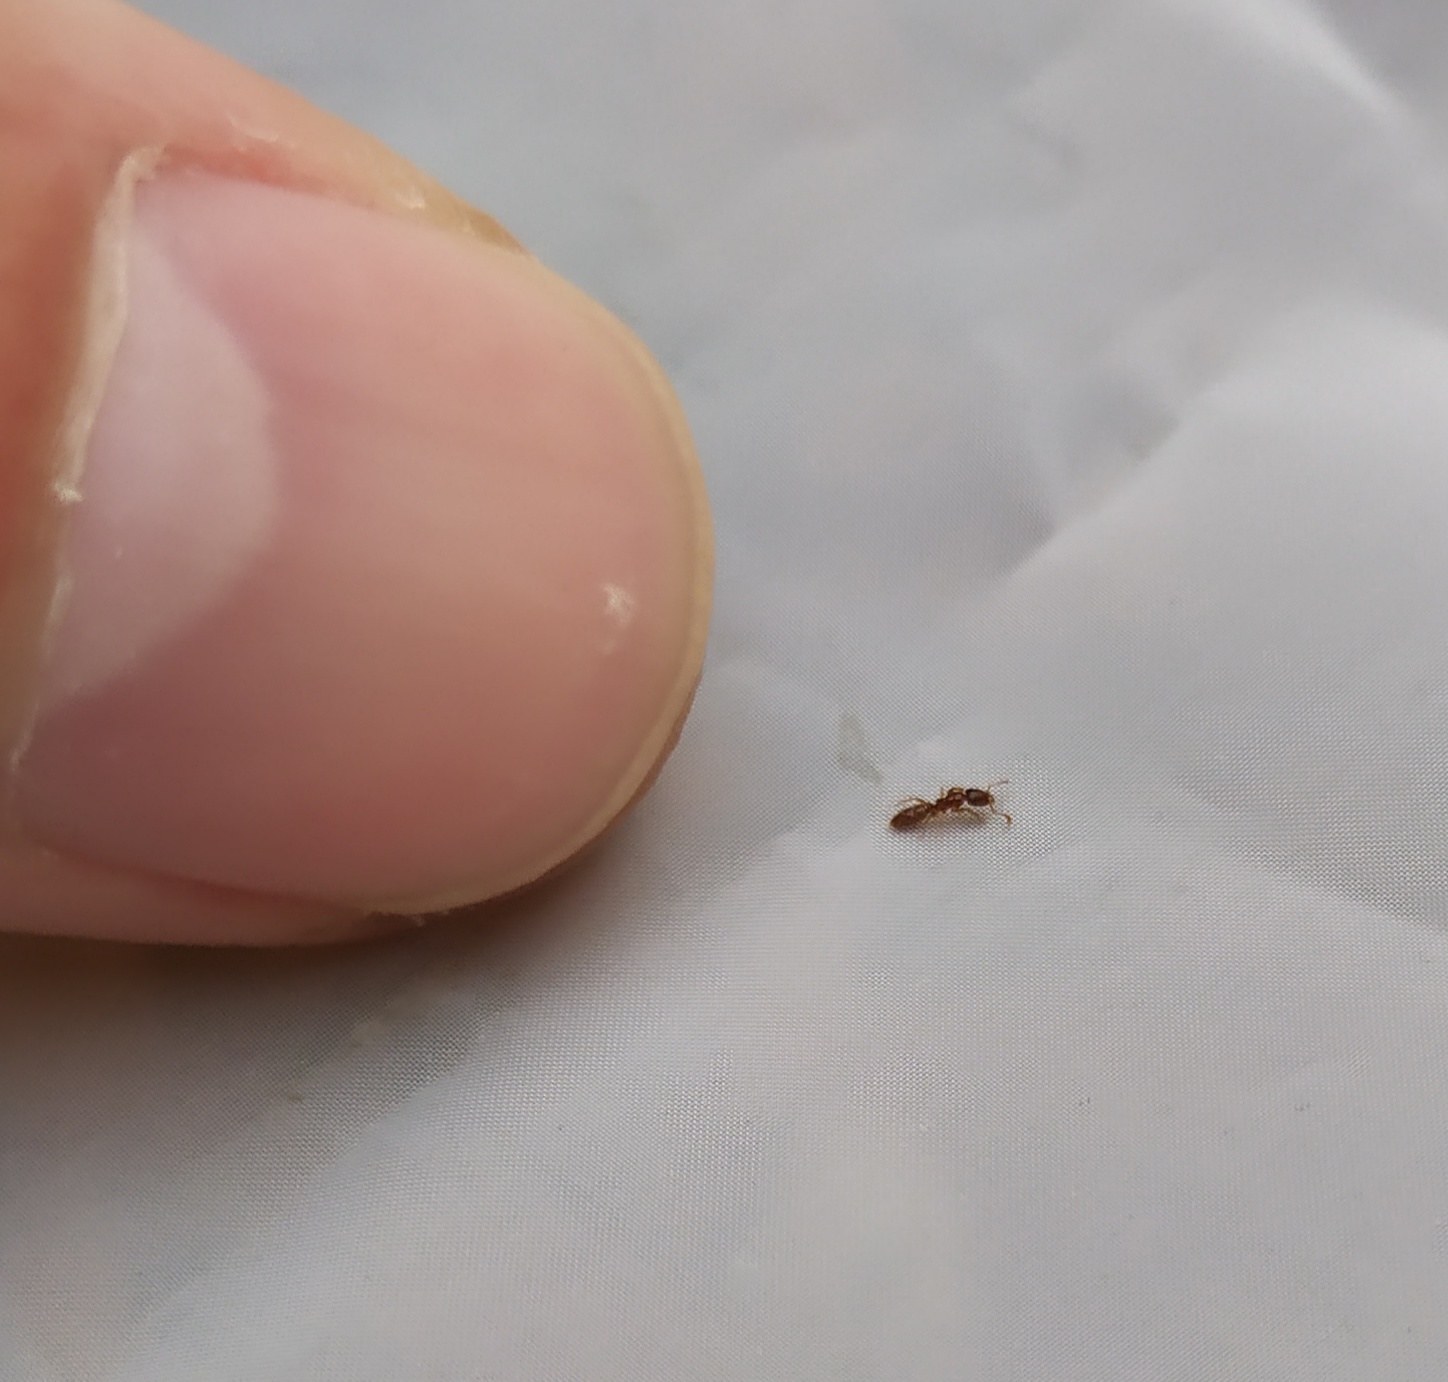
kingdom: Animalia
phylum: Arthropoda
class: Insecta
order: Hymenoptera
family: Formicidae
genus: Ponera
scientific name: Ponera testacea
